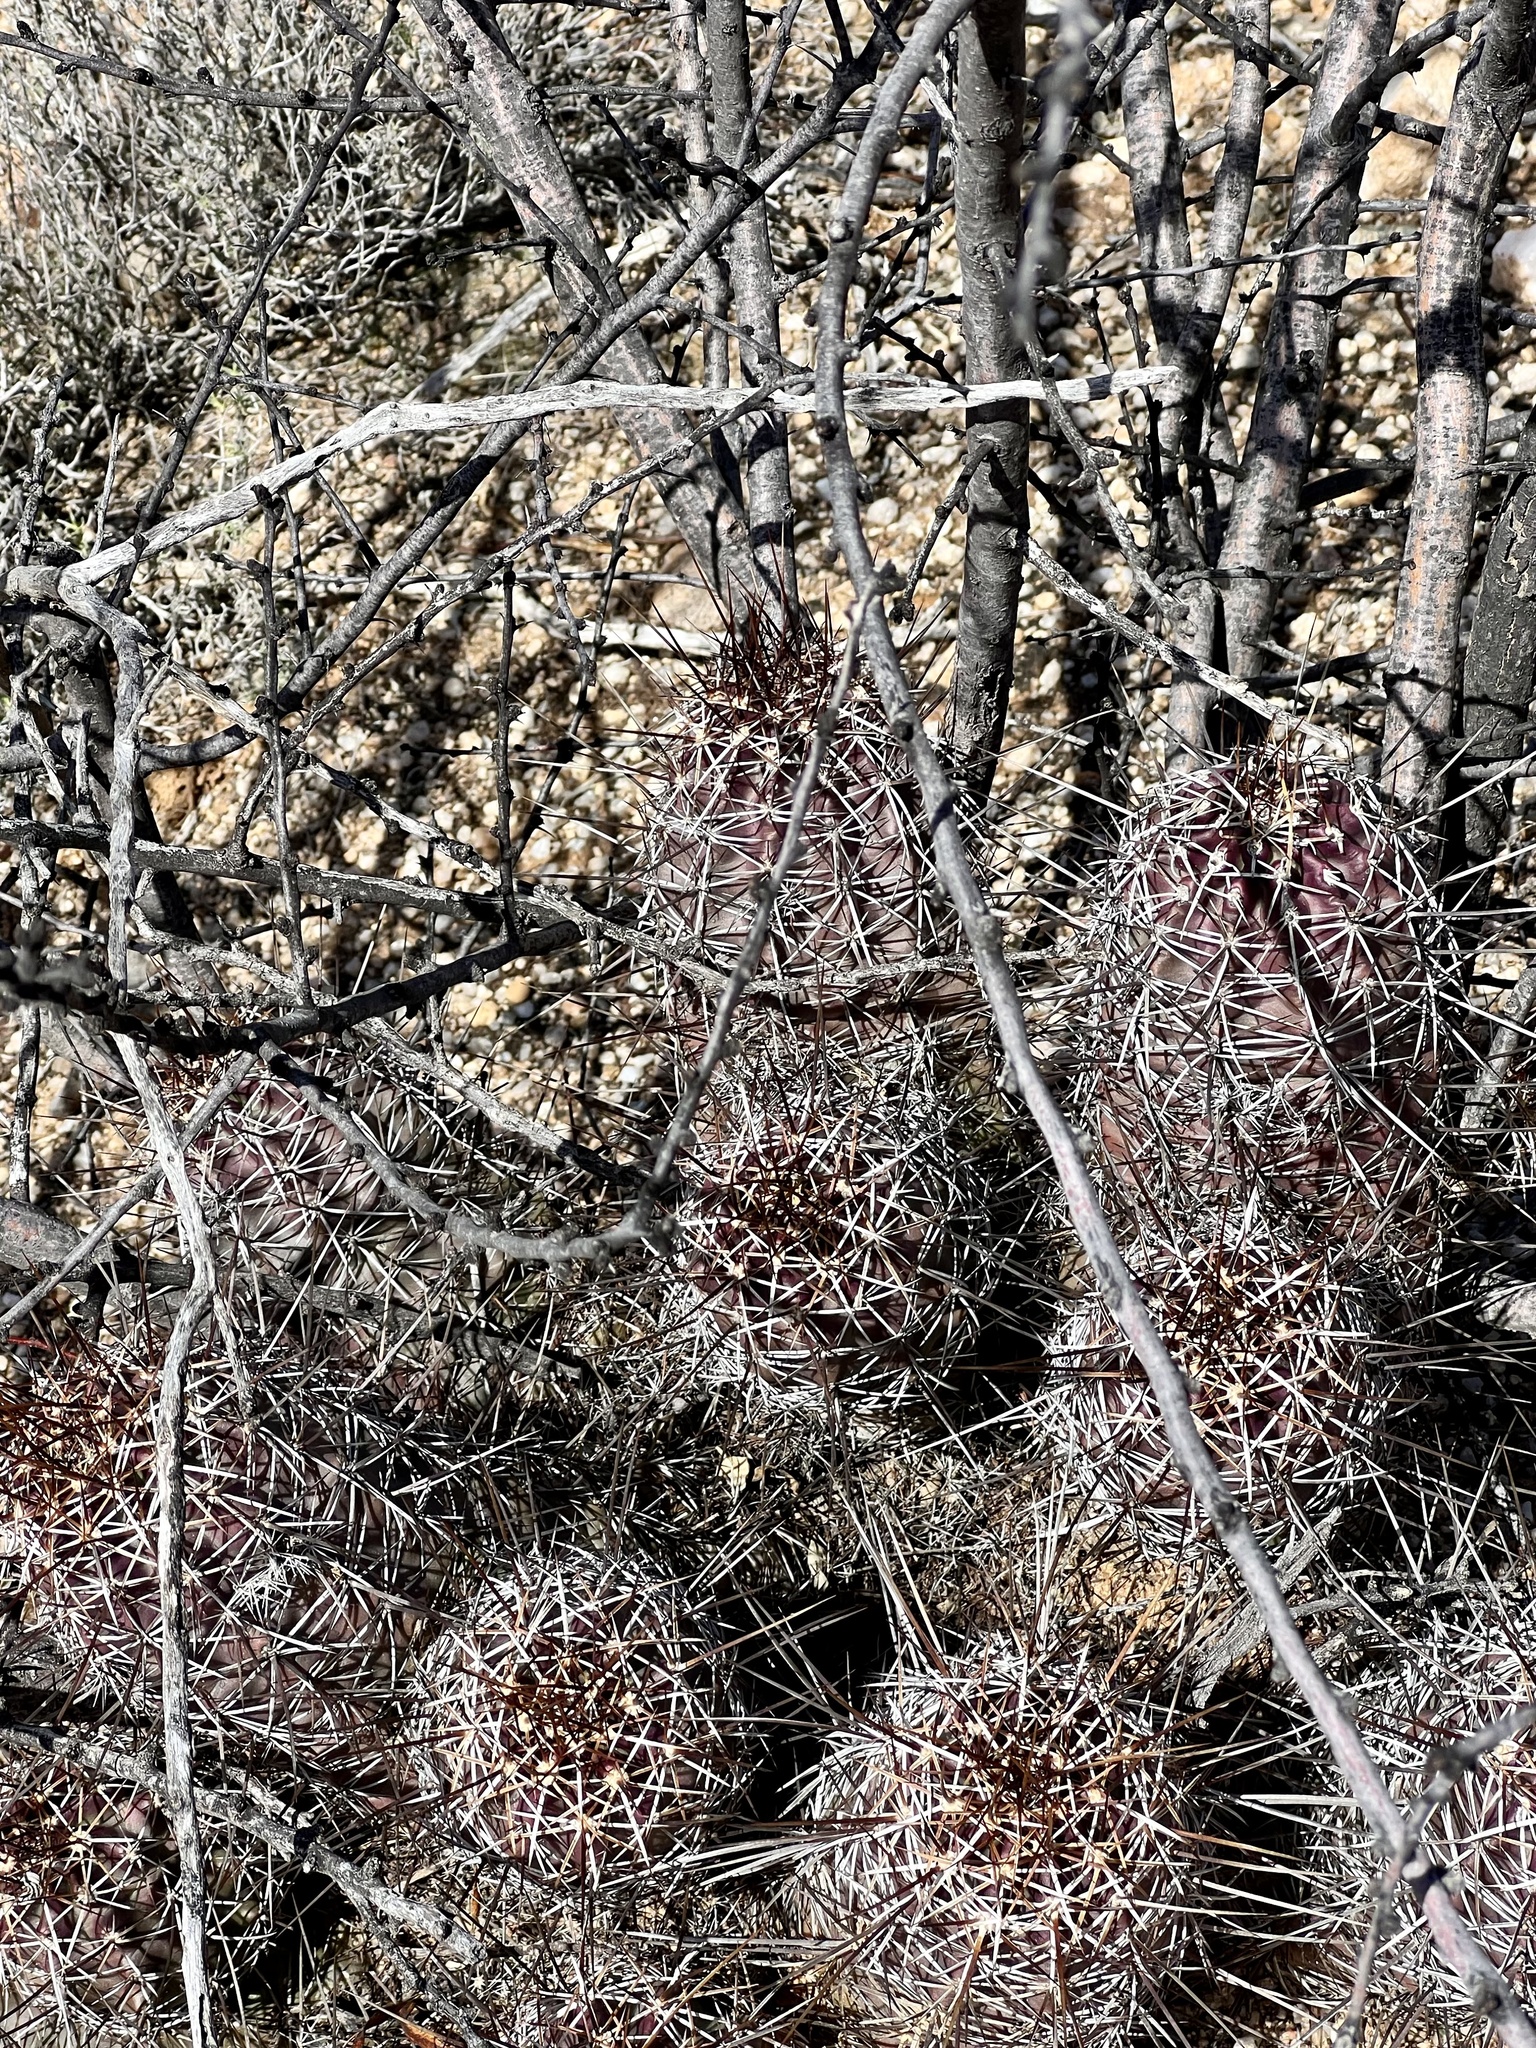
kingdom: Plantae
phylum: Tracheophyta
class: Magnoliopsida
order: Caryophyllales
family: Cactaceae
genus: Echinocereus
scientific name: Echinocereus fendleri
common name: Fendler's hedgehog cactus
